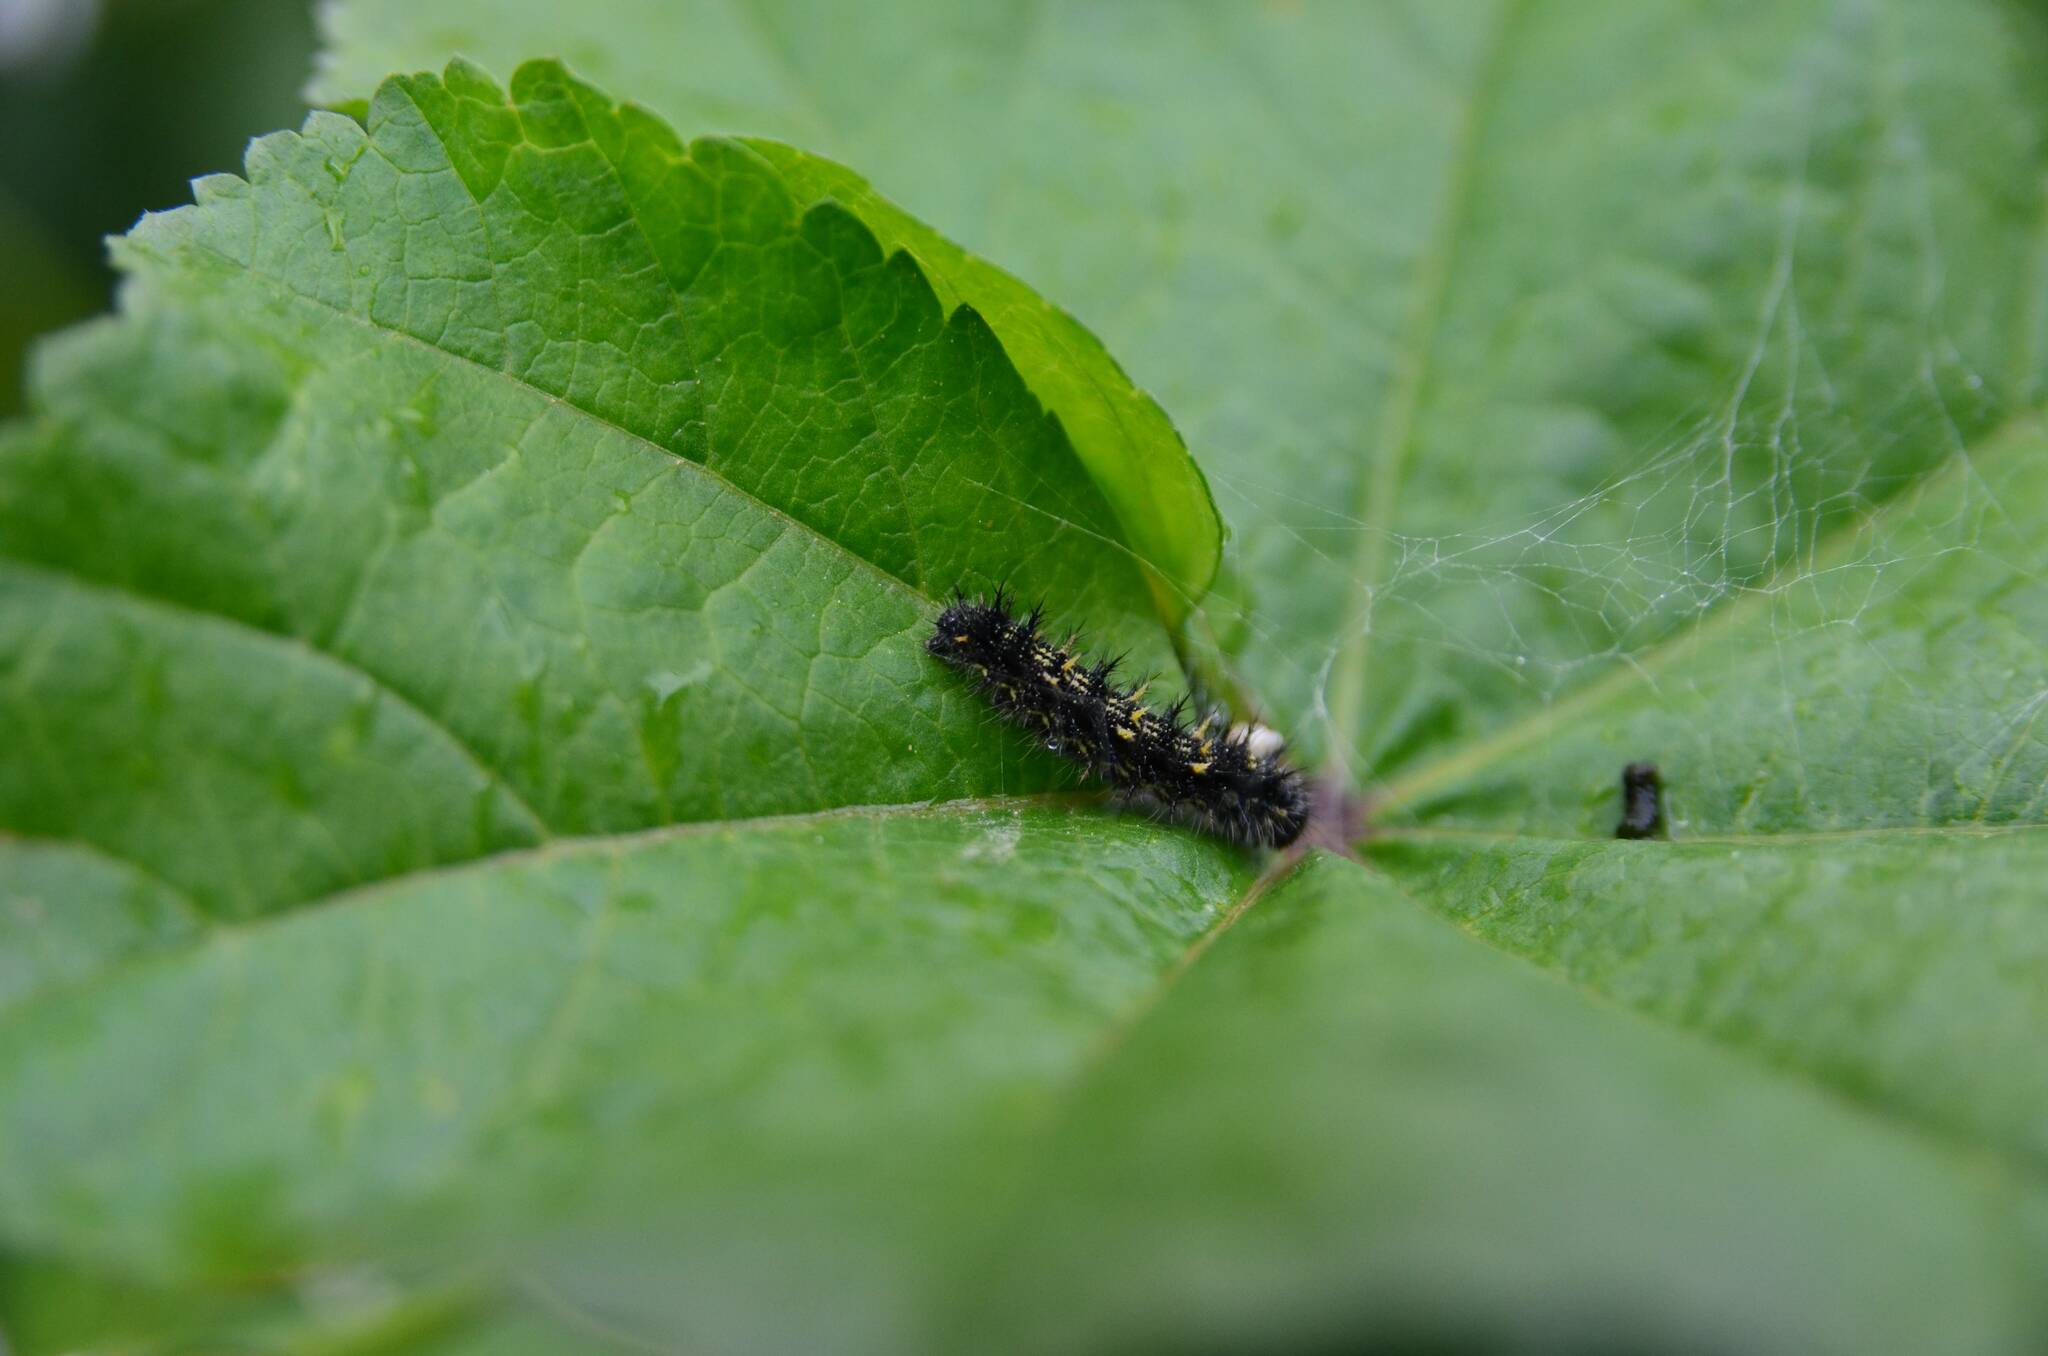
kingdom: Animalia
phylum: Arthropoda
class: Insecta
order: Lepidoptera
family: Nymphalidae
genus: Vanessa
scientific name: Vanessa cardui
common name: Painted lady
